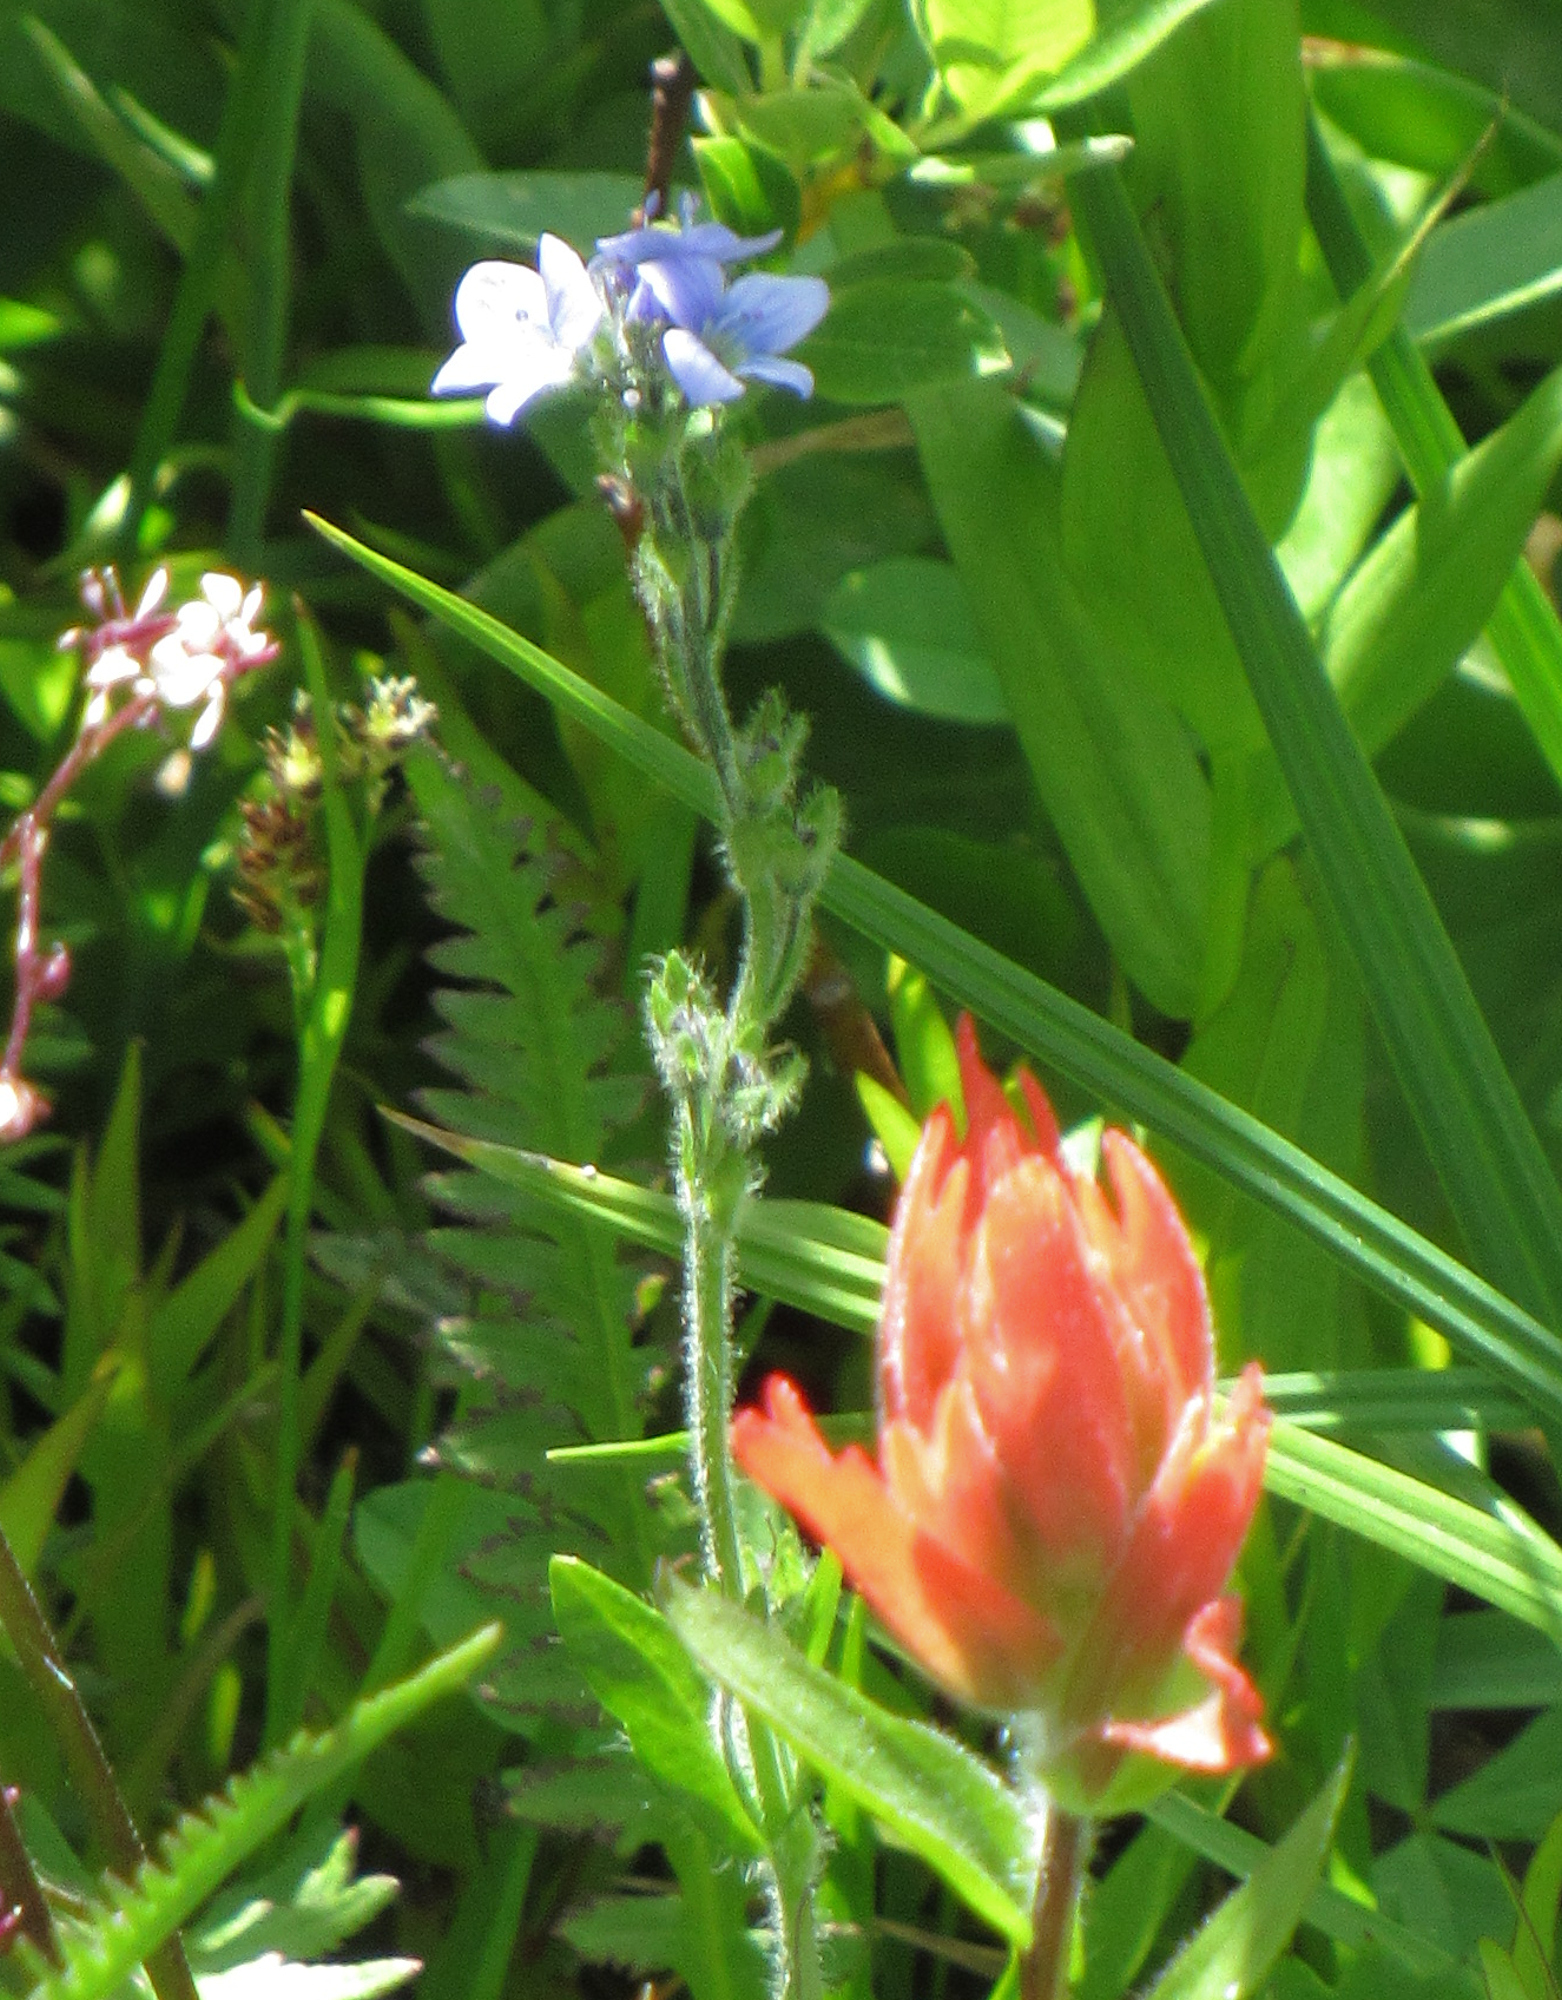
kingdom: Plantae
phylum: Tracheophyta
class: Magnoliopsida
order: Lamiales
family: Plantaginaceae
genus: Veronica
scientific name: Veronica wormskjoldii
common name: American alpine speedwell
